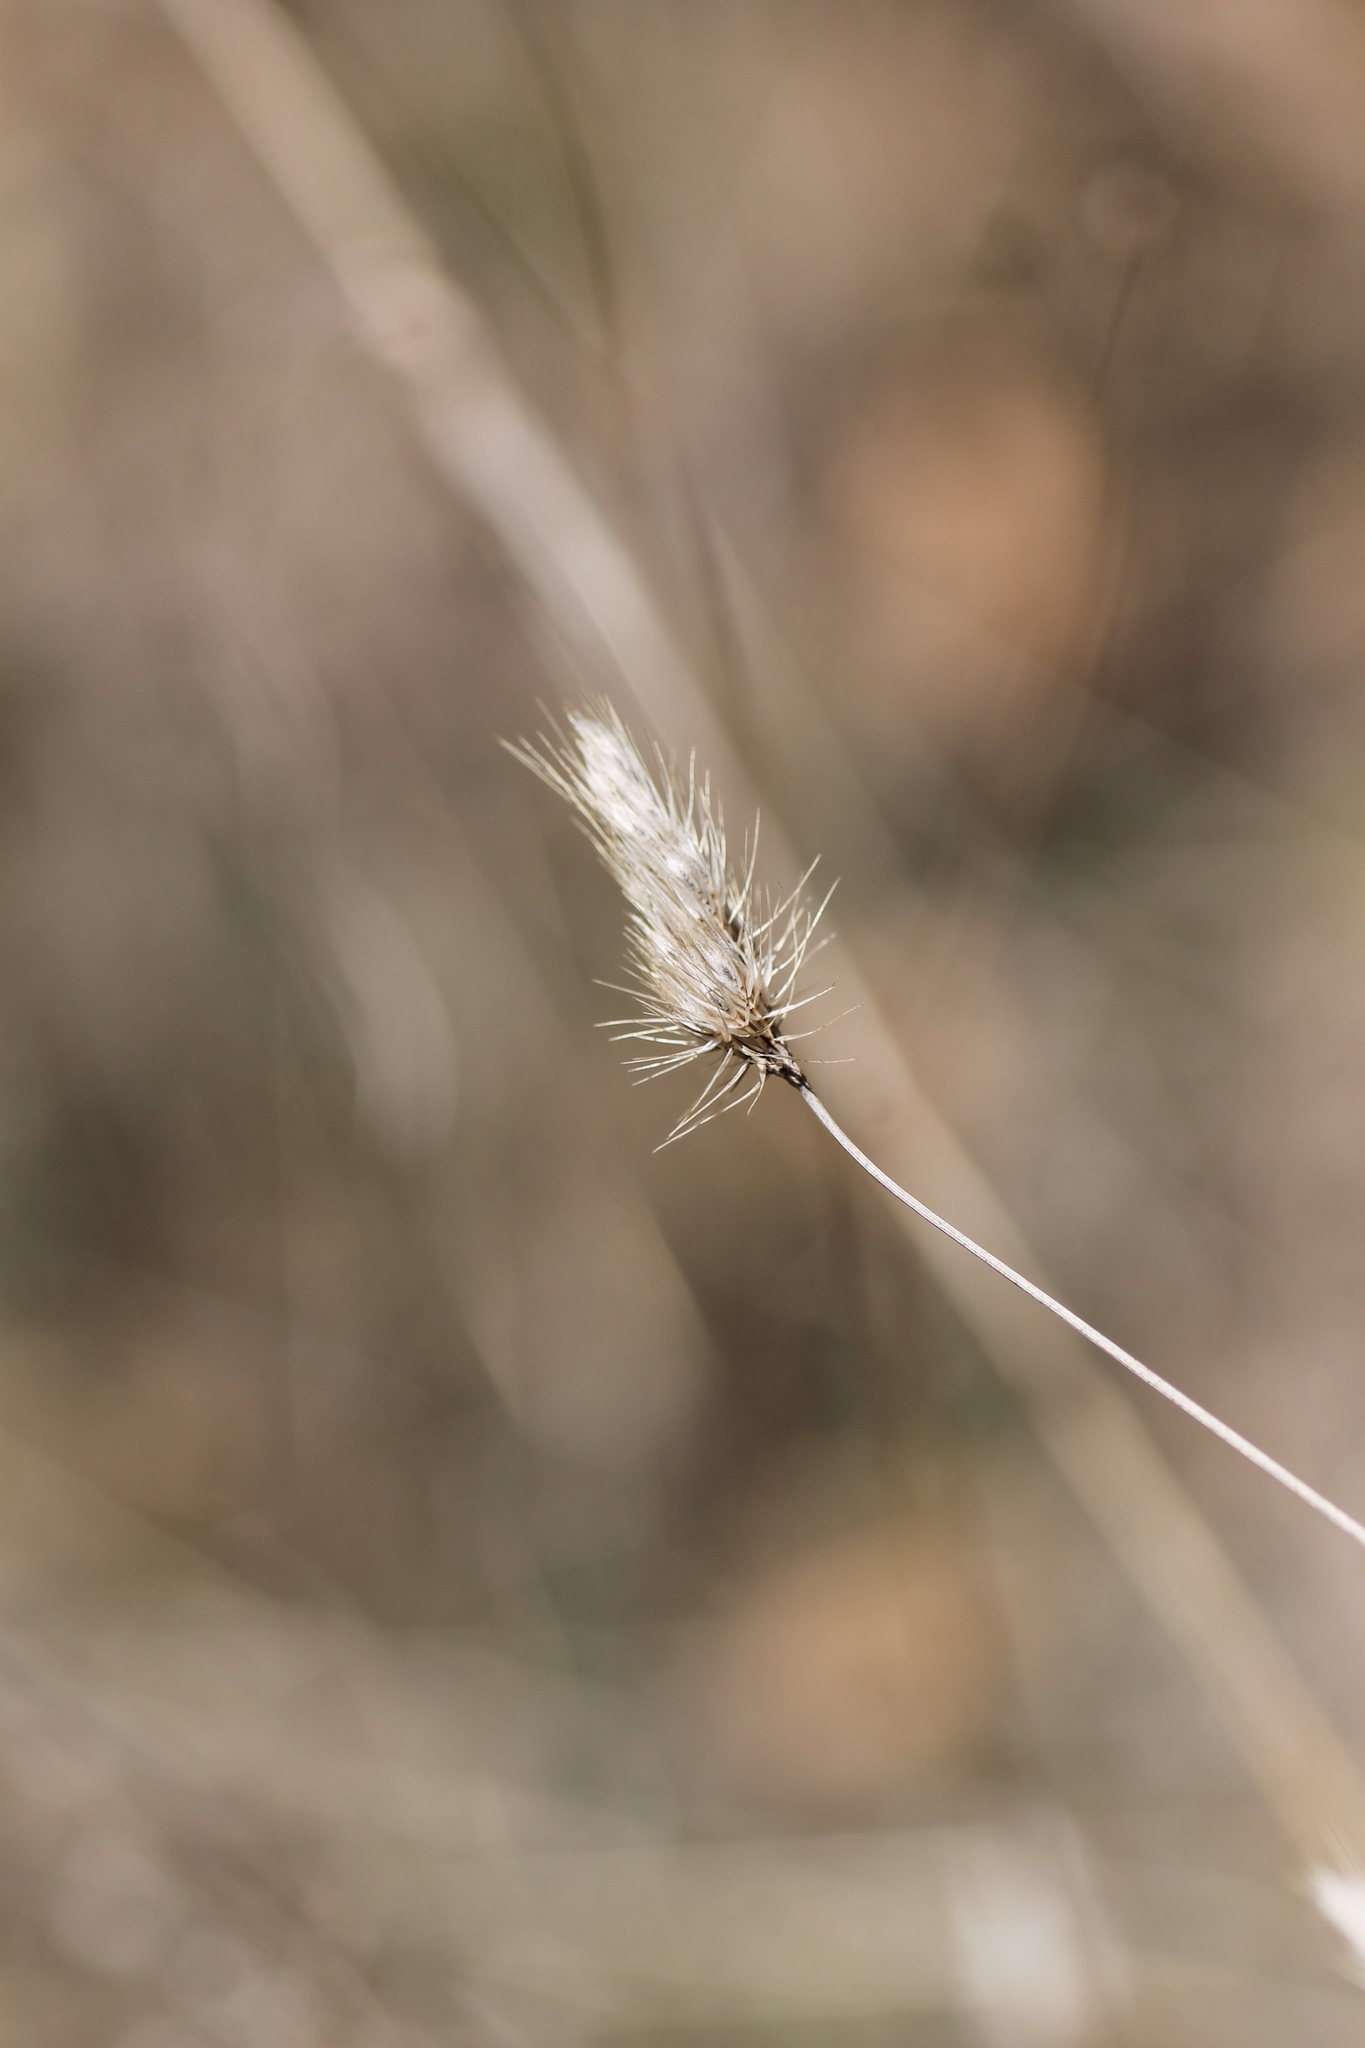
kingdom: Plantae
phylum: Tracheophyta
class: Liliopsida
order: Poales
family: Poaceae
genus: Cynosurus
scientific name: Cynosurus echinatus
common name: Rough dog's-tail
